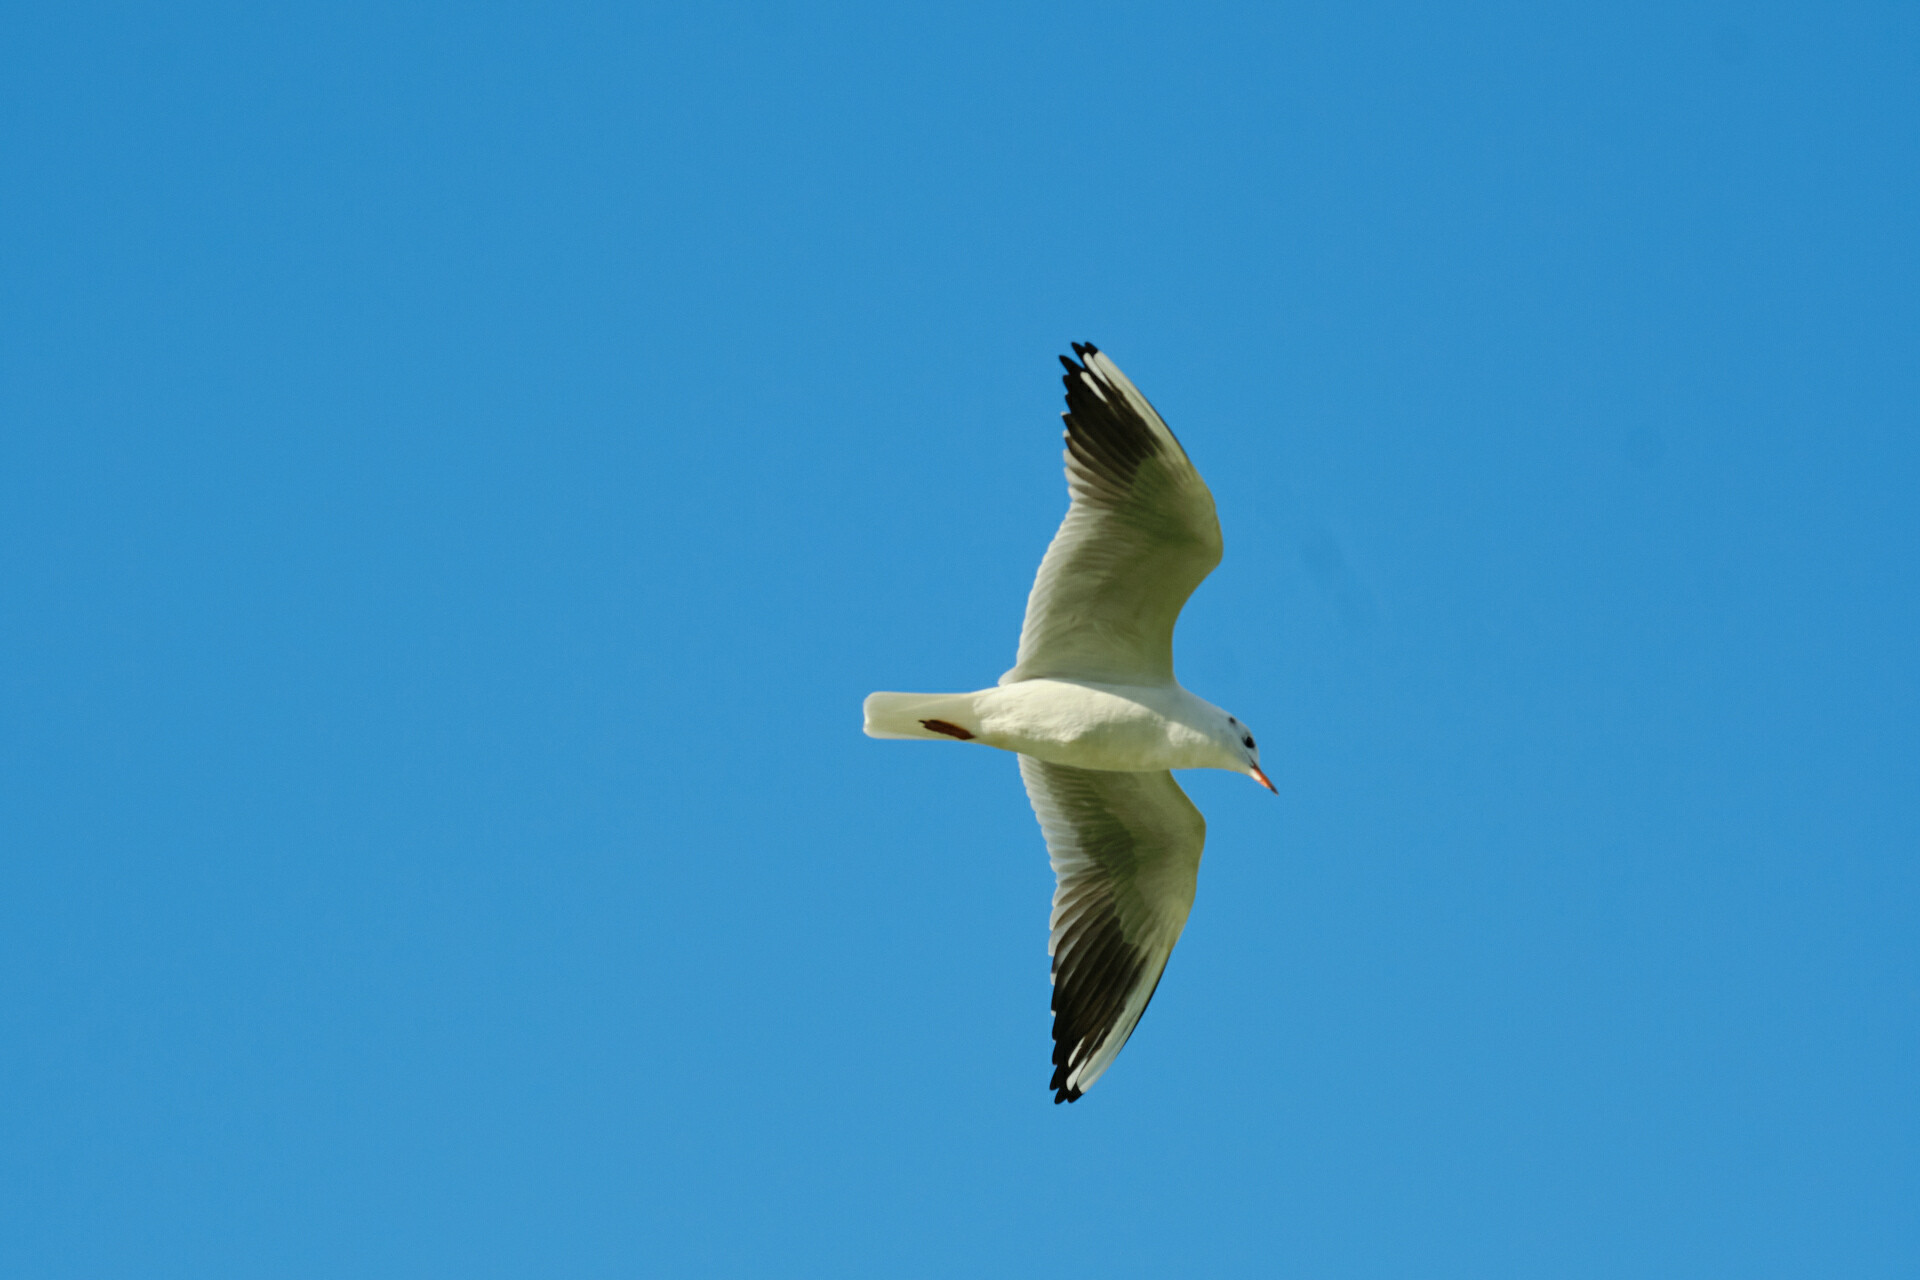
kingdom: Animalia
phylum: Chordata
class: Aves
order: Charadriiformes
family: Laridae
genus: Chroicocephalus
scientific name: Chroicocephalus ridibundus
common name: Black-headed gull
